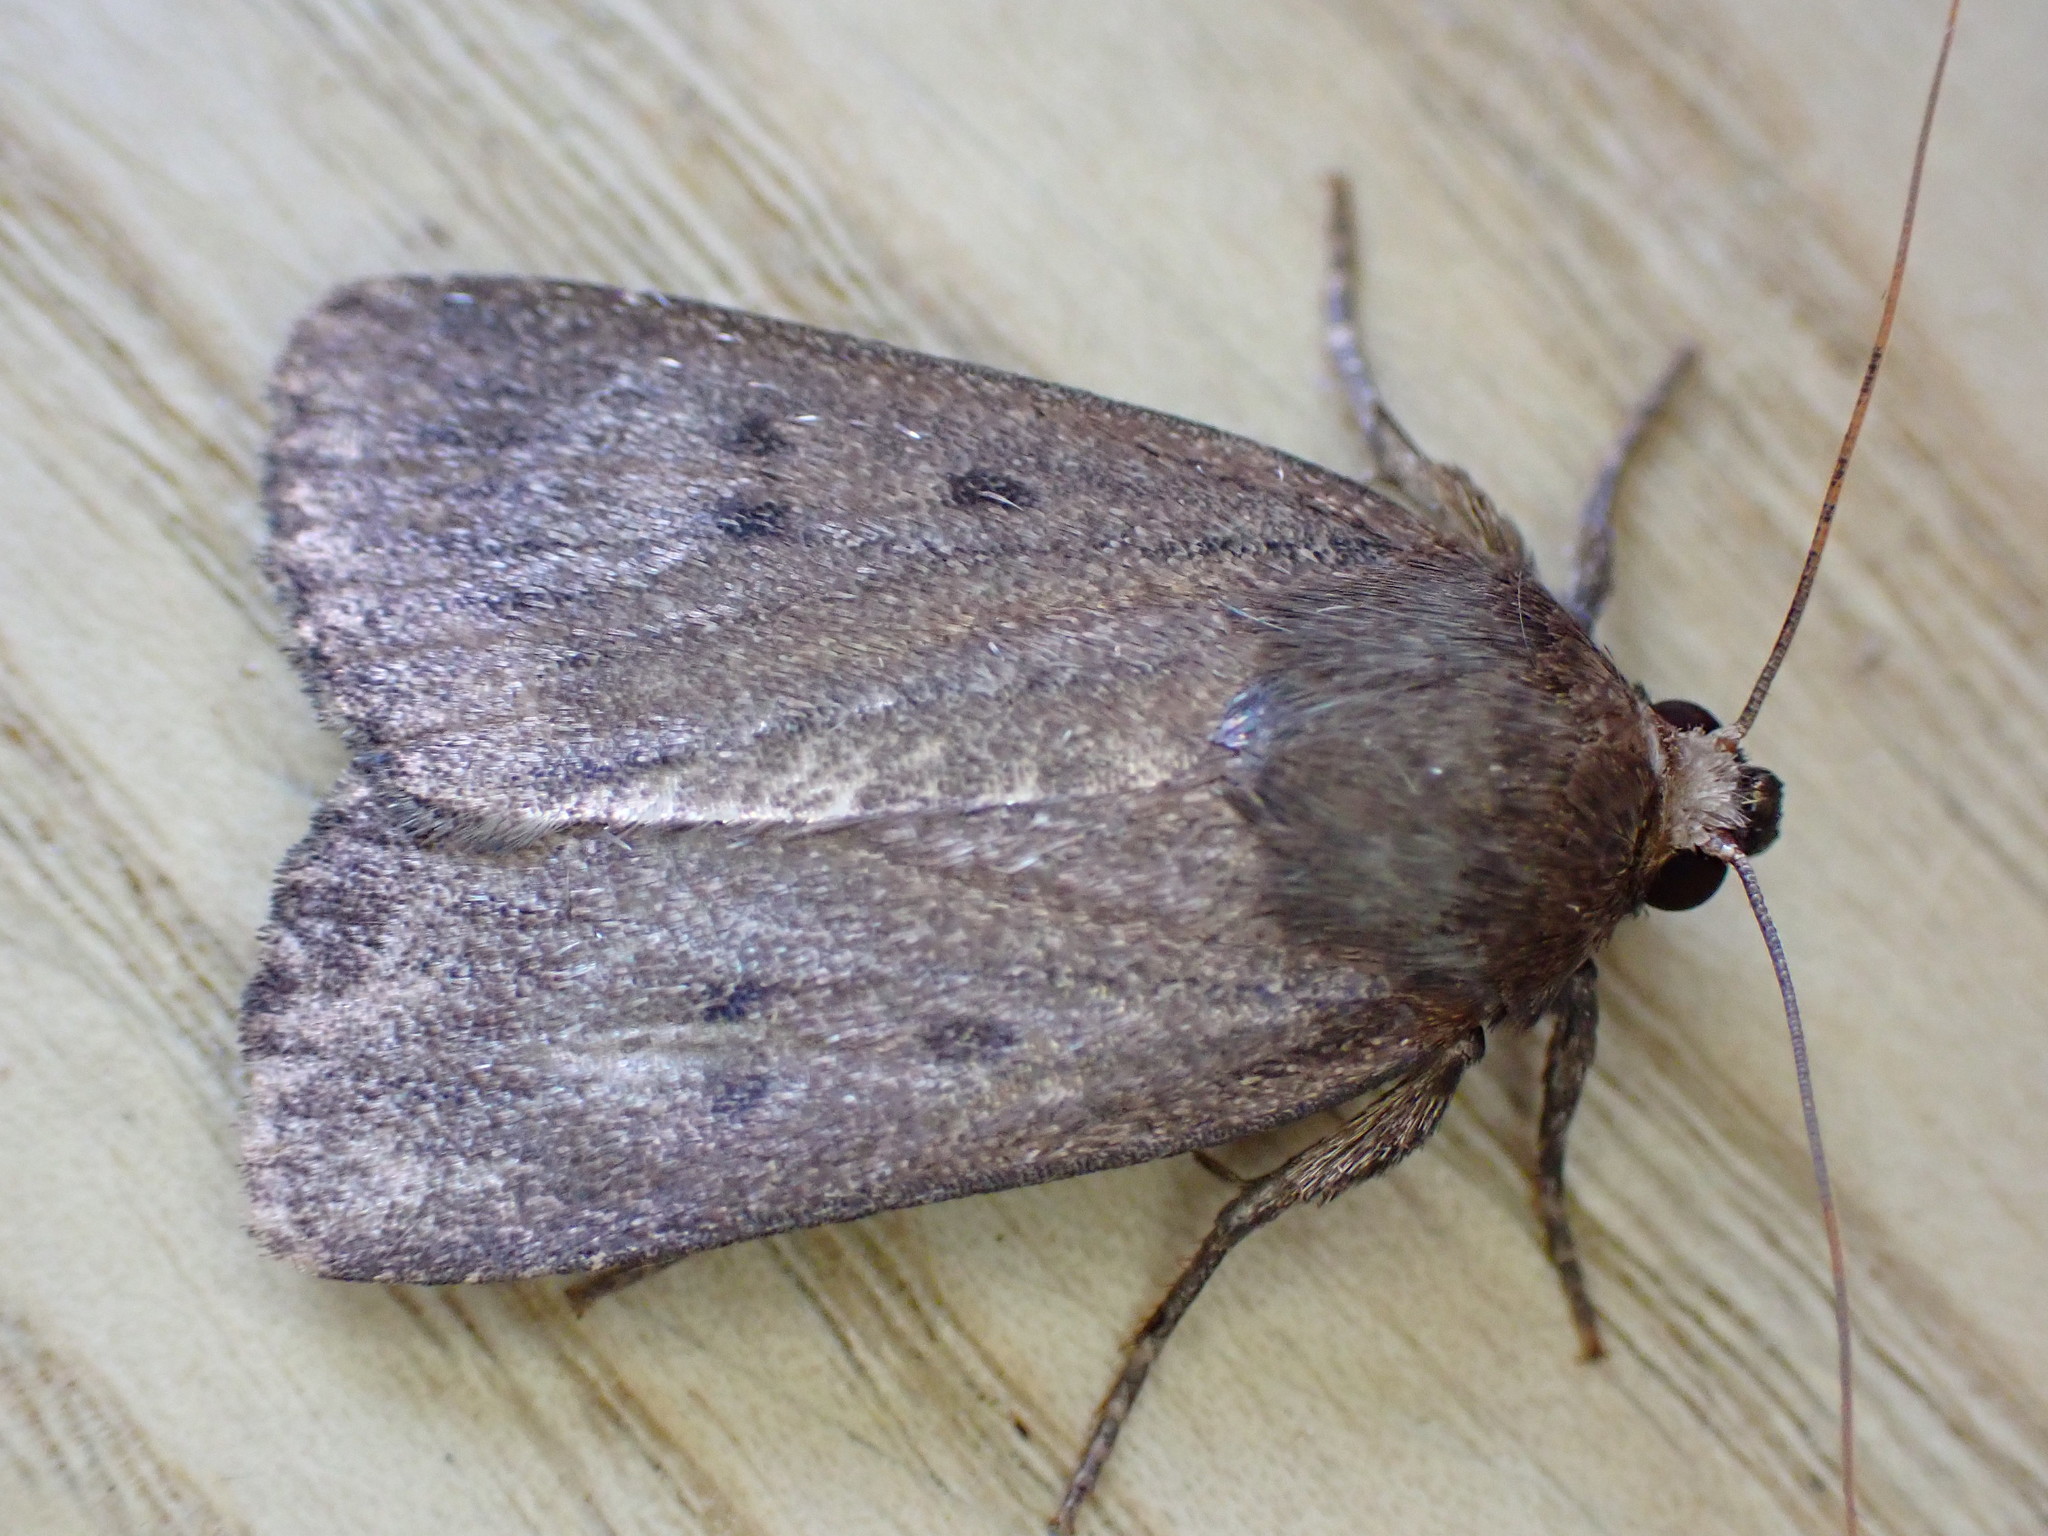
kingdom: Animalia
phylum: Arthropoda
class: Insecta
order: Lepidoptera
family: Noctuidae
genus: Amphipyra
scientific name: Amphipyra tragopoginis
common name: Mouse moth
